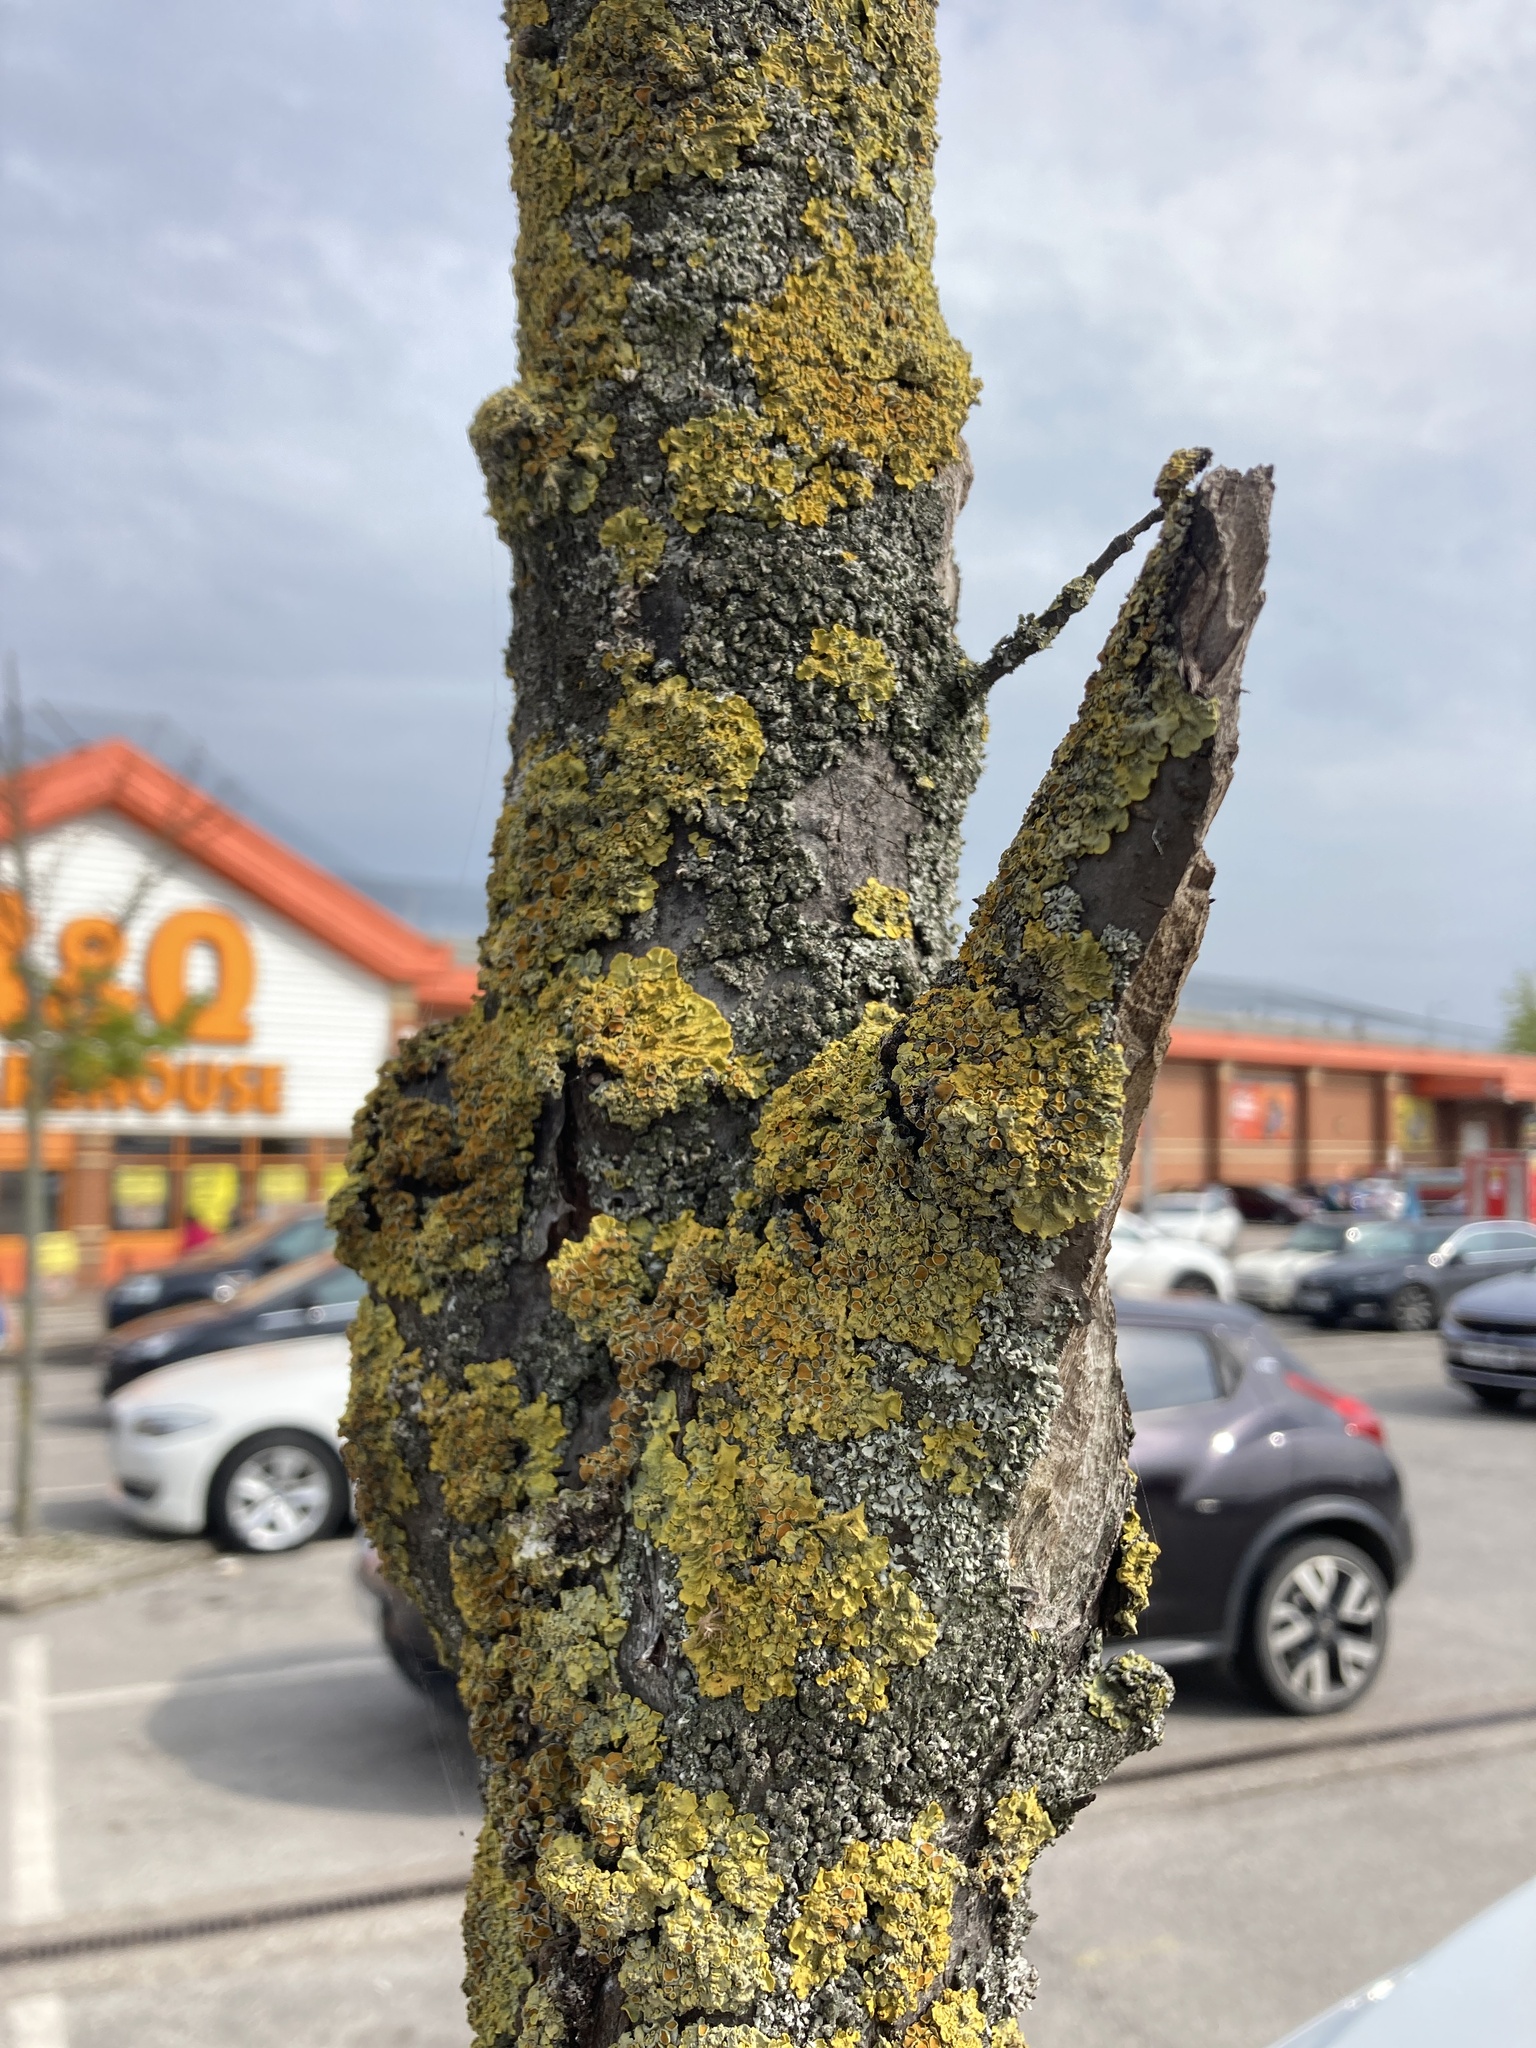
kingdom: Fungi
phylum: Ascomycota
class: Lecanoromycetes
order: Teloschistales
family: Teloschistaceae
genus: Xanthoria
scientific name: Xanthoria parietina
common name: Common orange lichen
